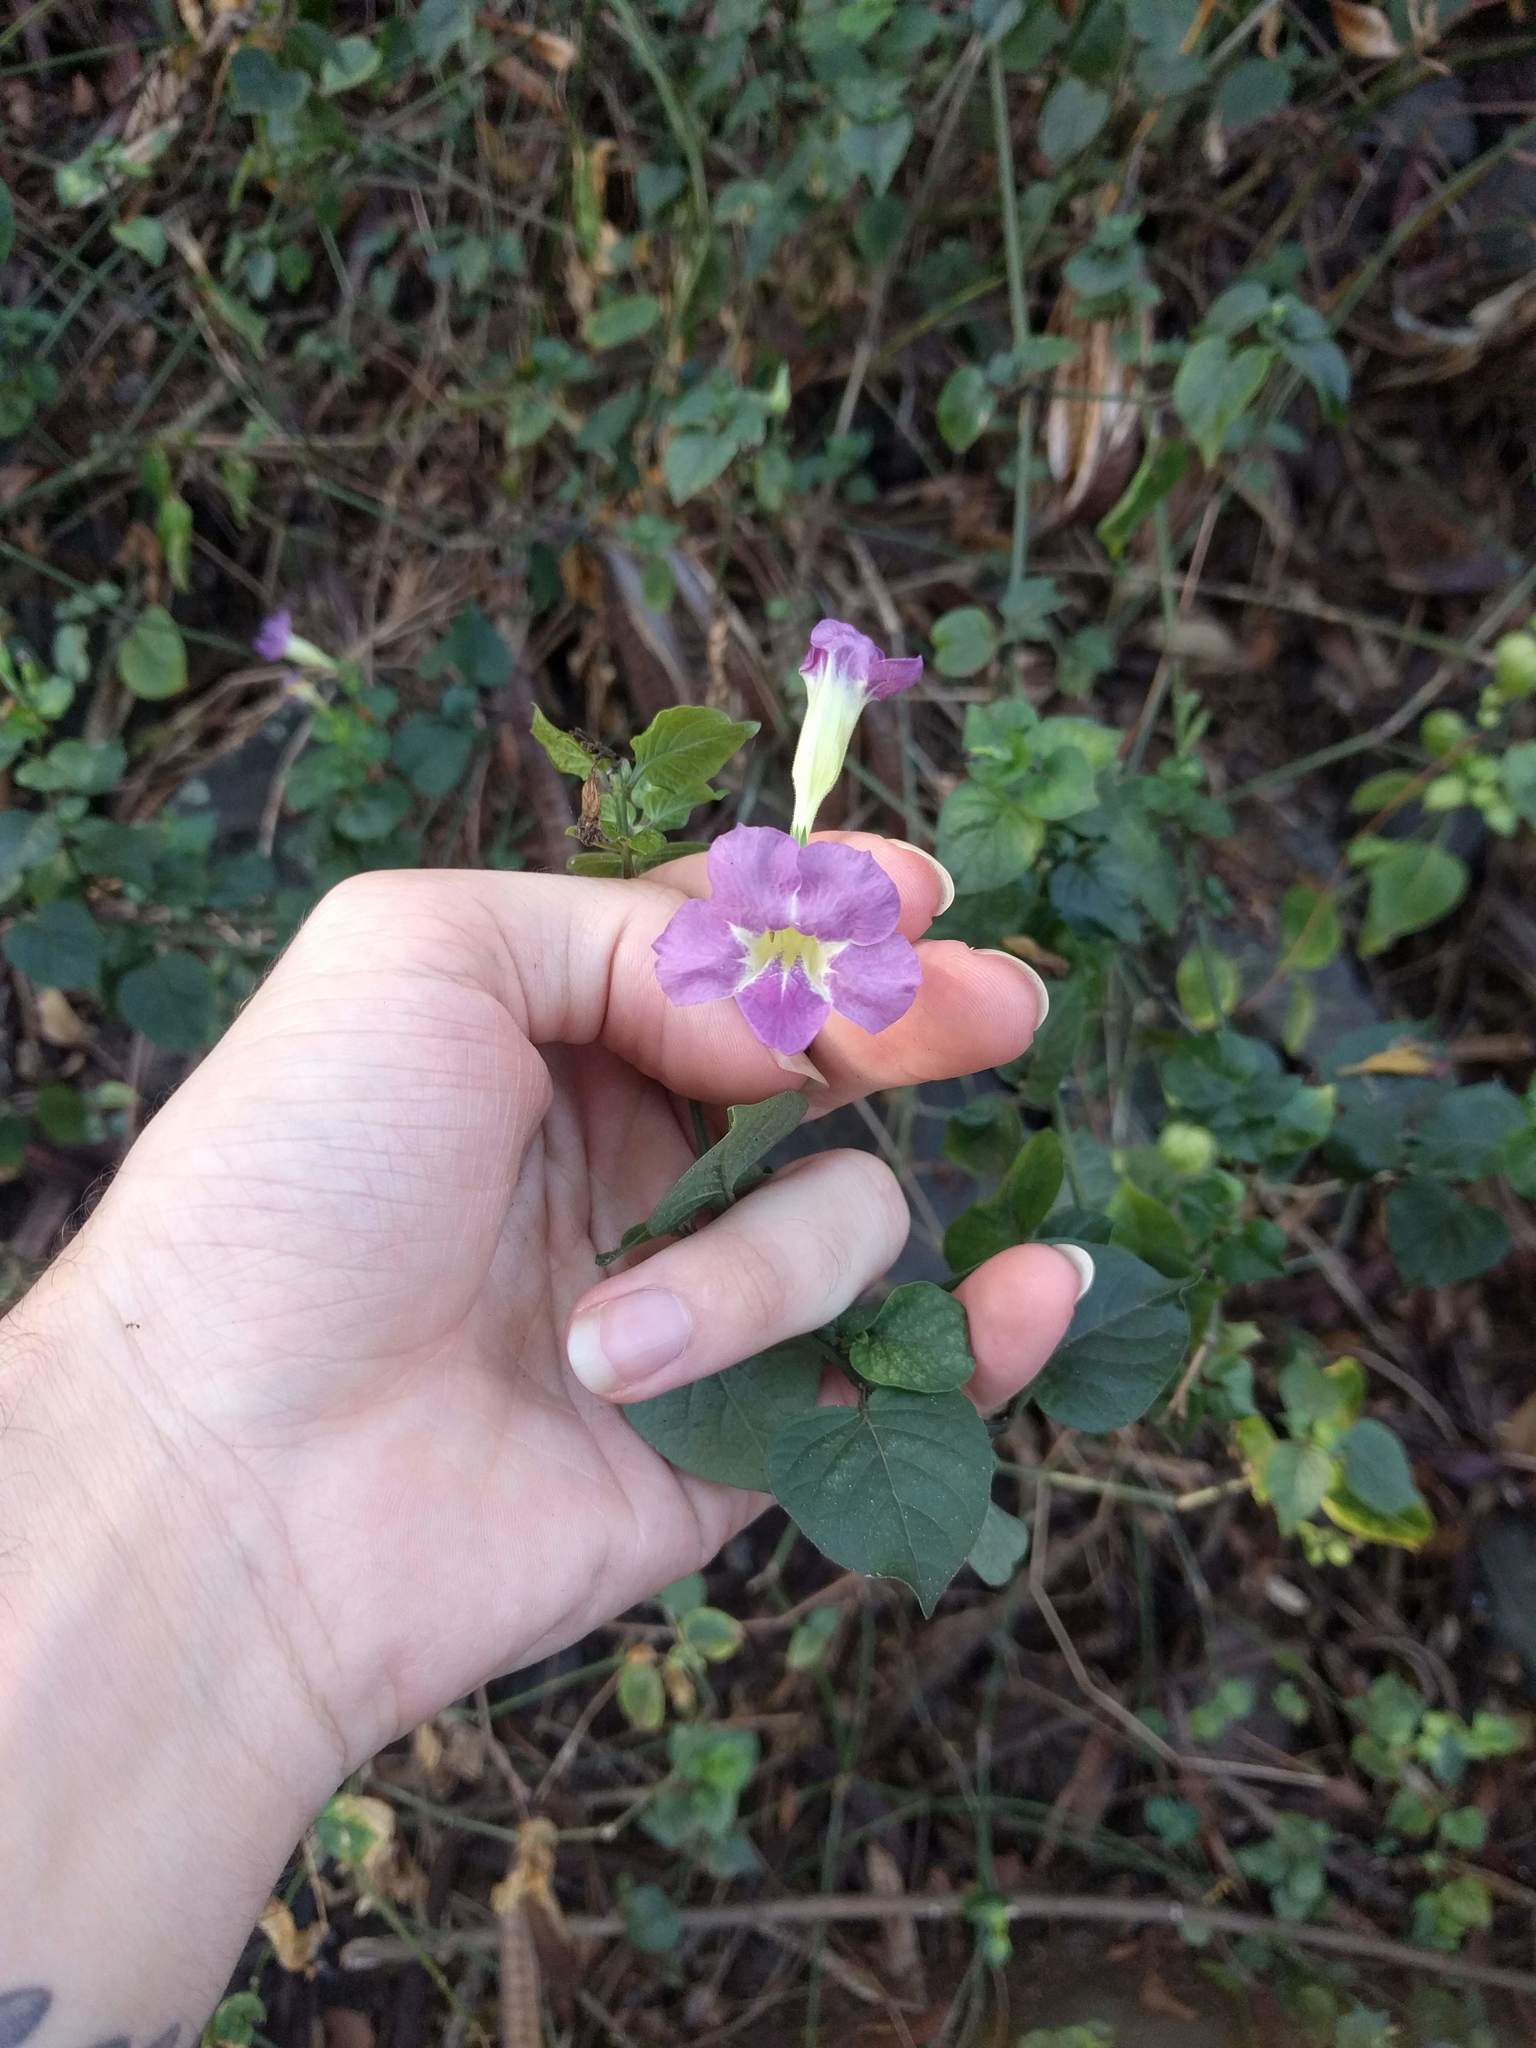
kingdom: Plantae
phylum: Tracheophyta
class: Magnoliopsida
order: Lamiales
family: Acanthaceae
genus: Asystasia
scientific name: Asystasia gangetica
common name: Chinese violet
